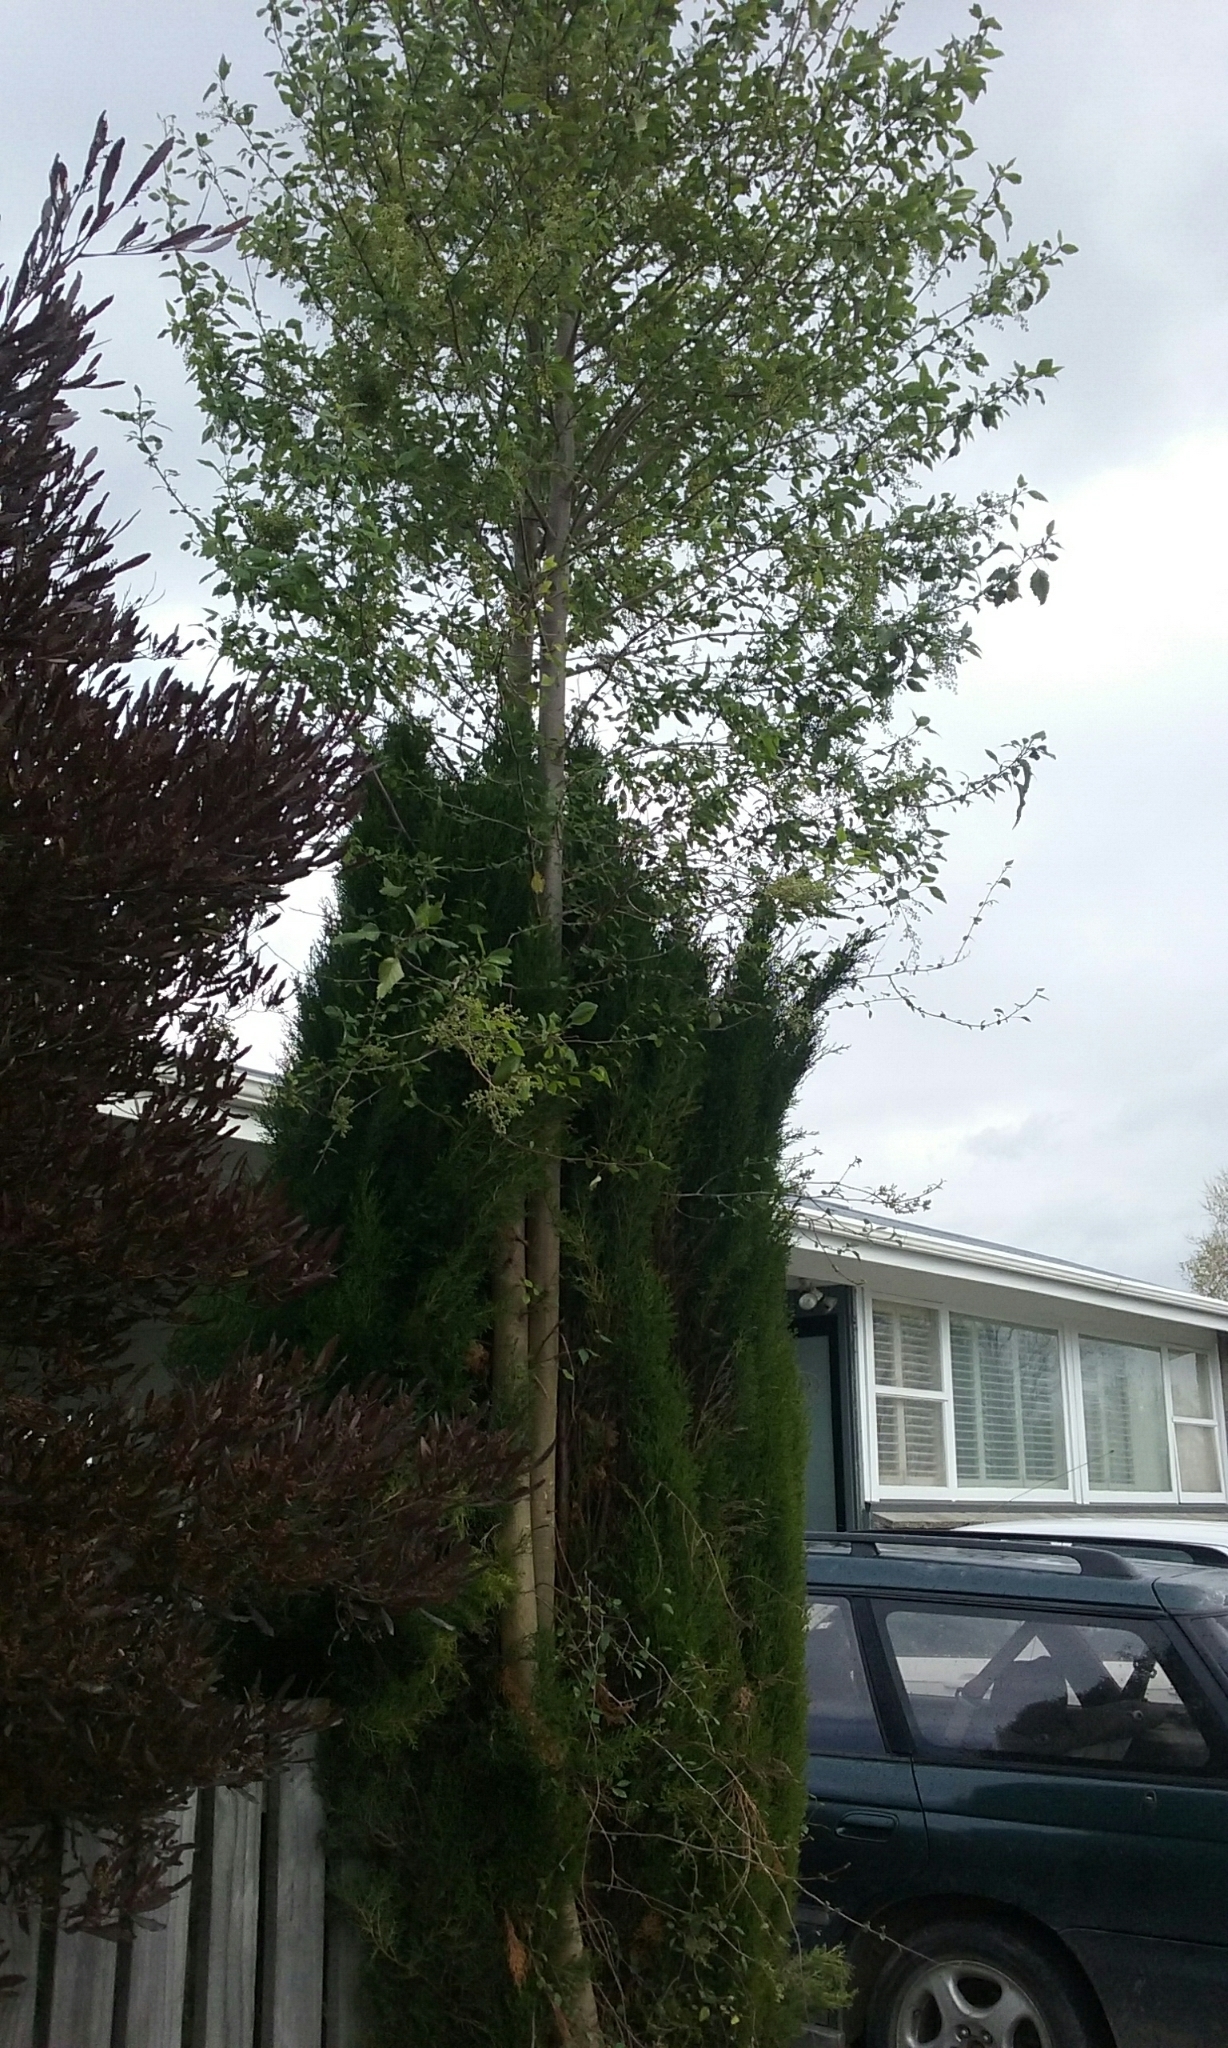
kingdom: Plantae
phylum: Tracheophyta
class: Magnoliopsida
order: Malvales
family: Malvaceae
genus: Plagianthus
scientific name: Plagianthus regius
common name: Manatu
